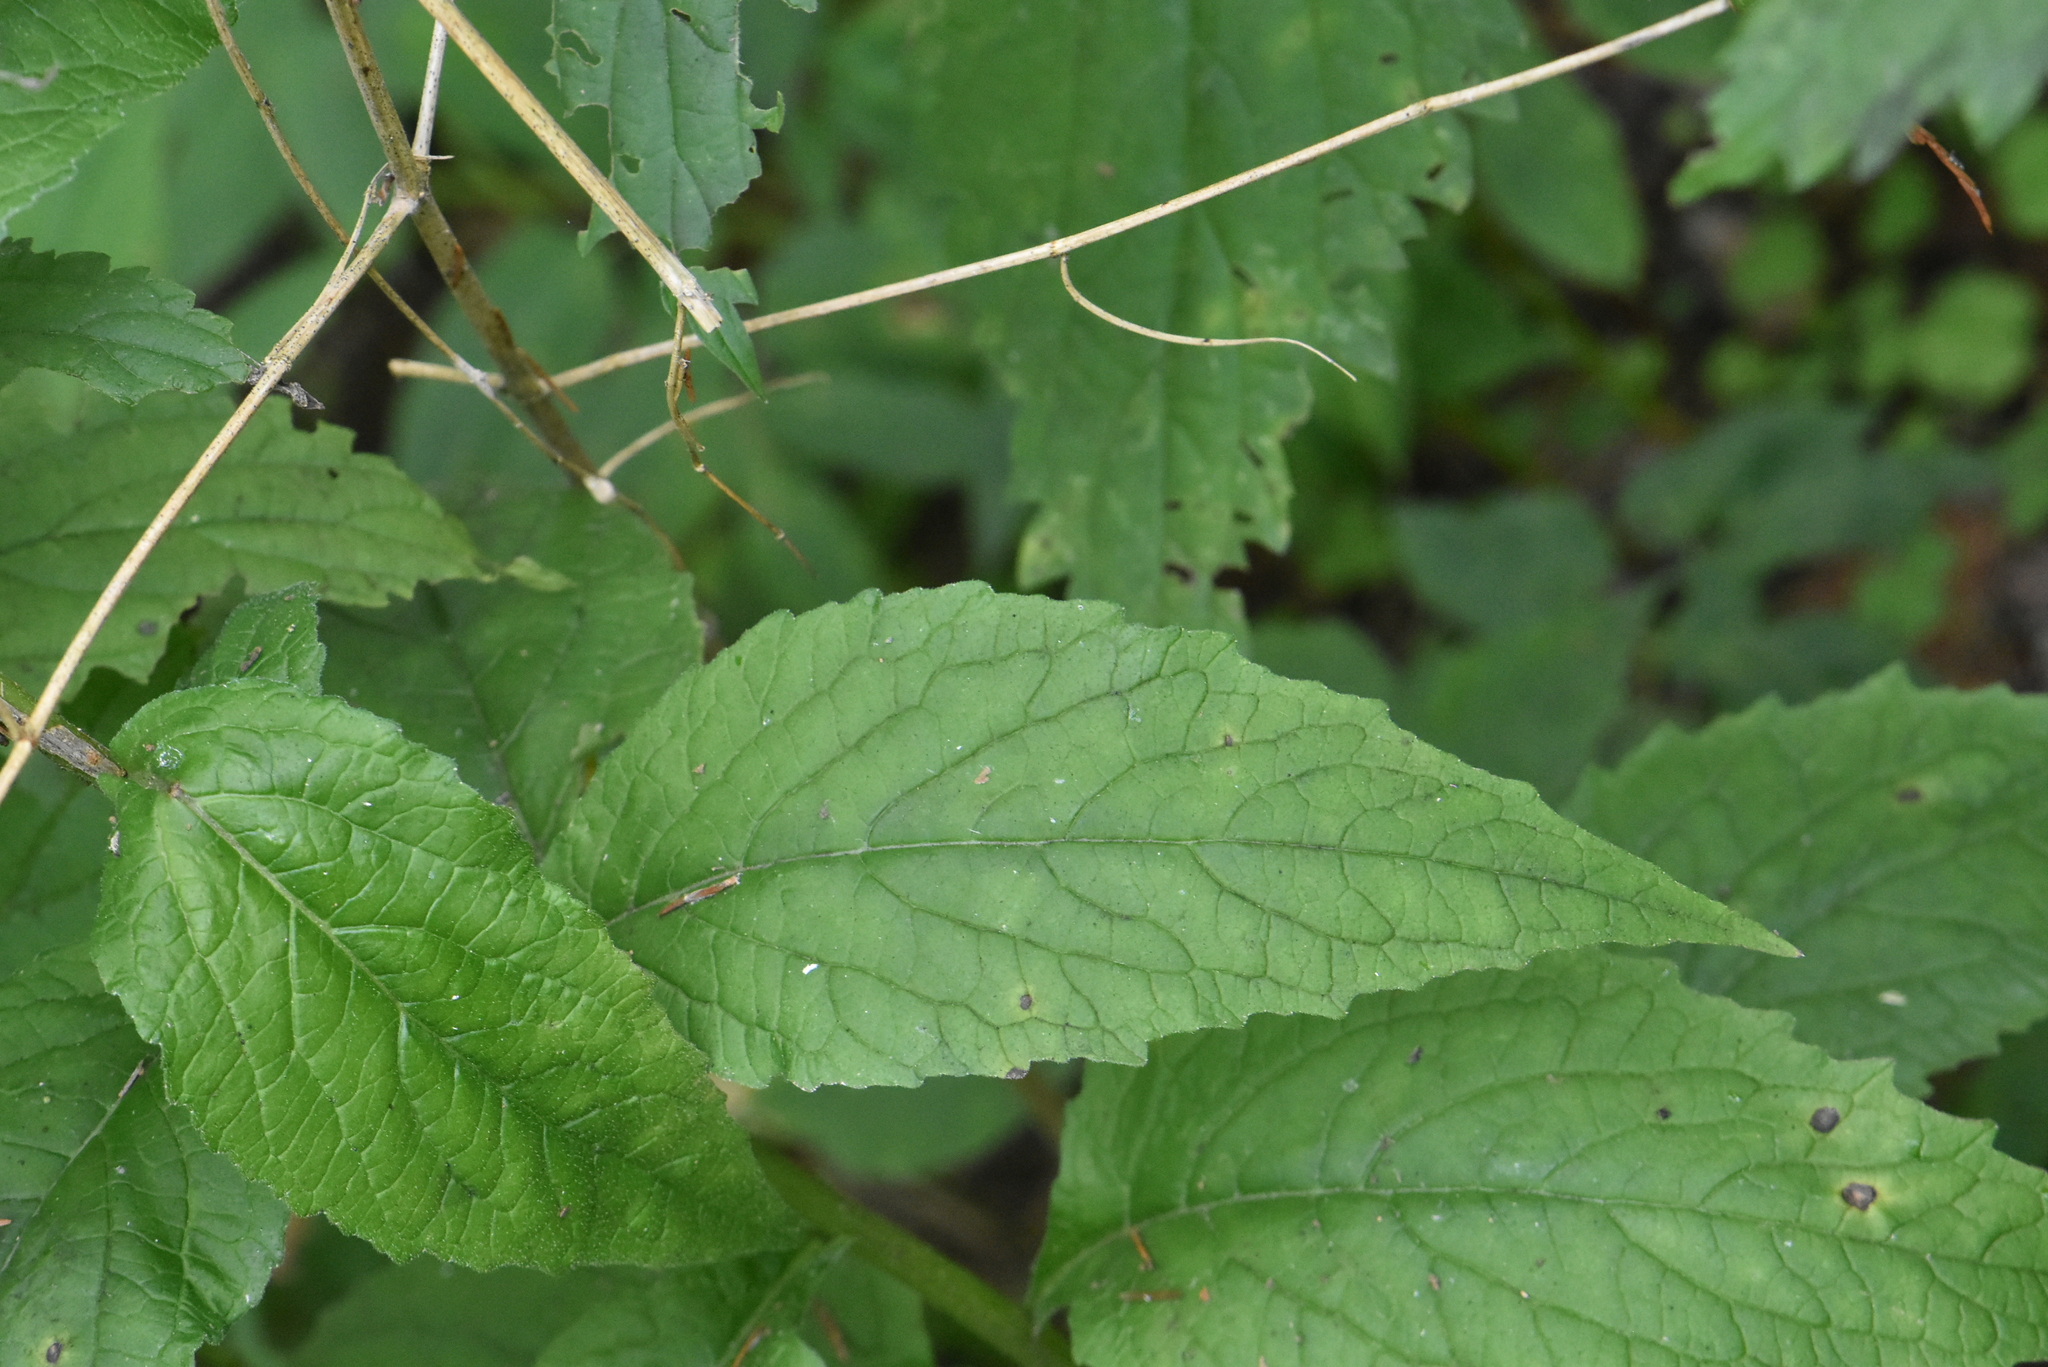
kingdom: Plantae
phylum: Tracheophyta
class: Magnoliopsida
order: Asterales
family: Campanulaceae
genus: Campanula
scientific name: Campanula latifolia
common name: Giant bellflower
